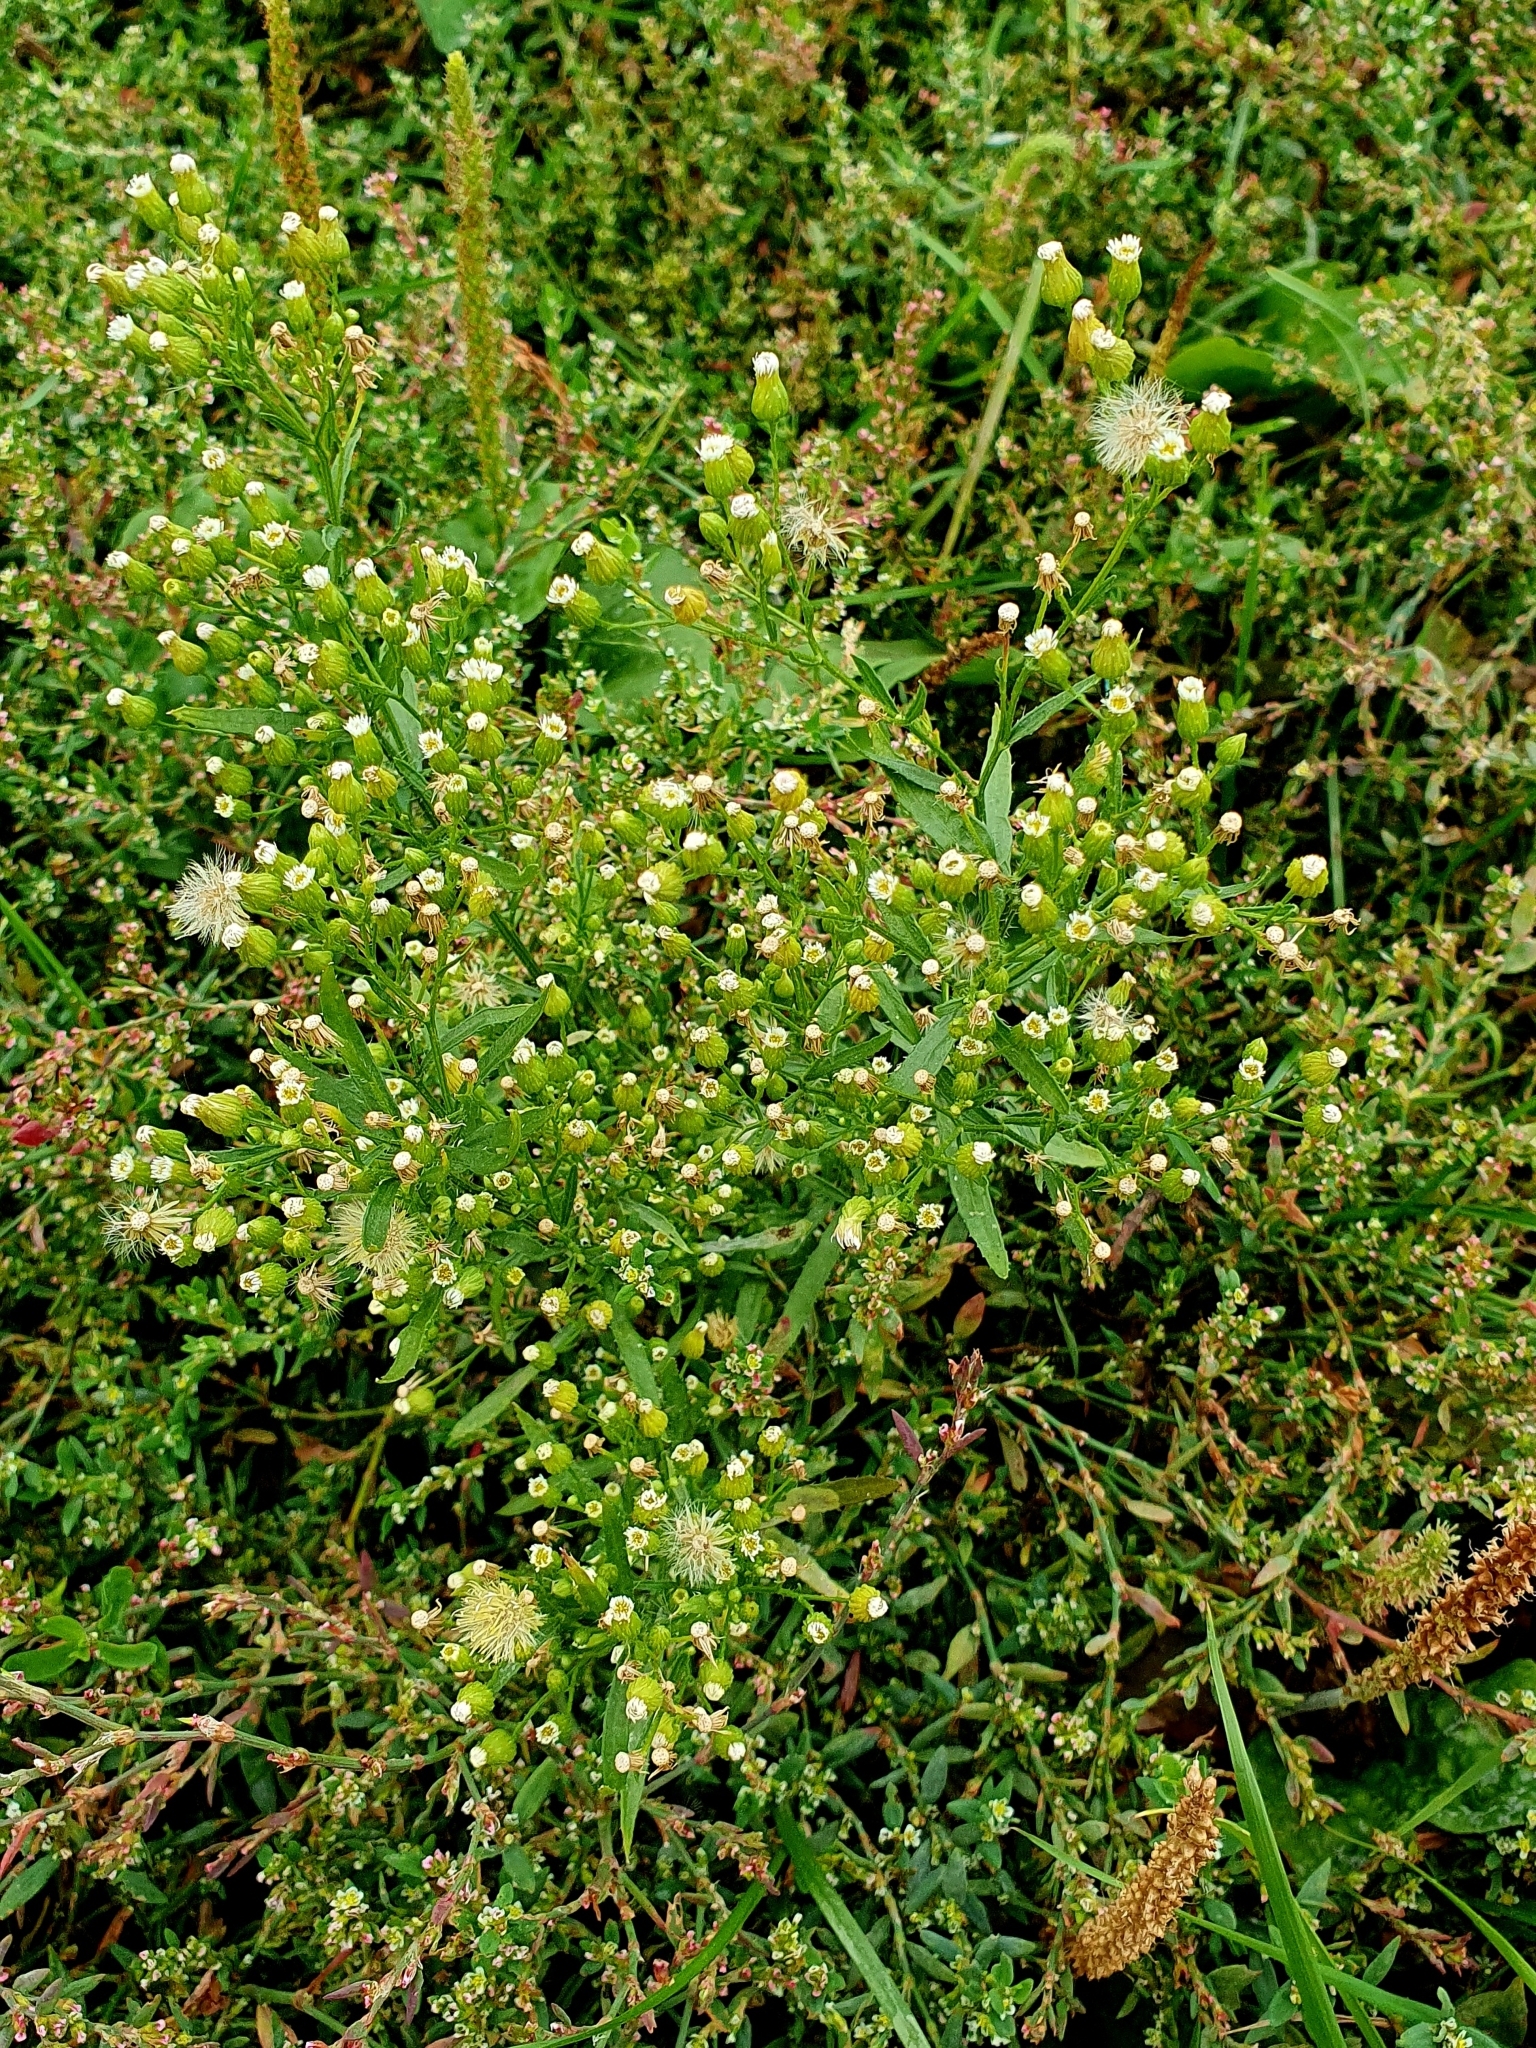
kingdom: Plantae
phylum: Tracheophyta
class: Magnoliopsida
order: Asterales
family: Asteraceae
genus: Erigeron
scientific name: Erigeron canadensis
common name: Canadian fleabane
